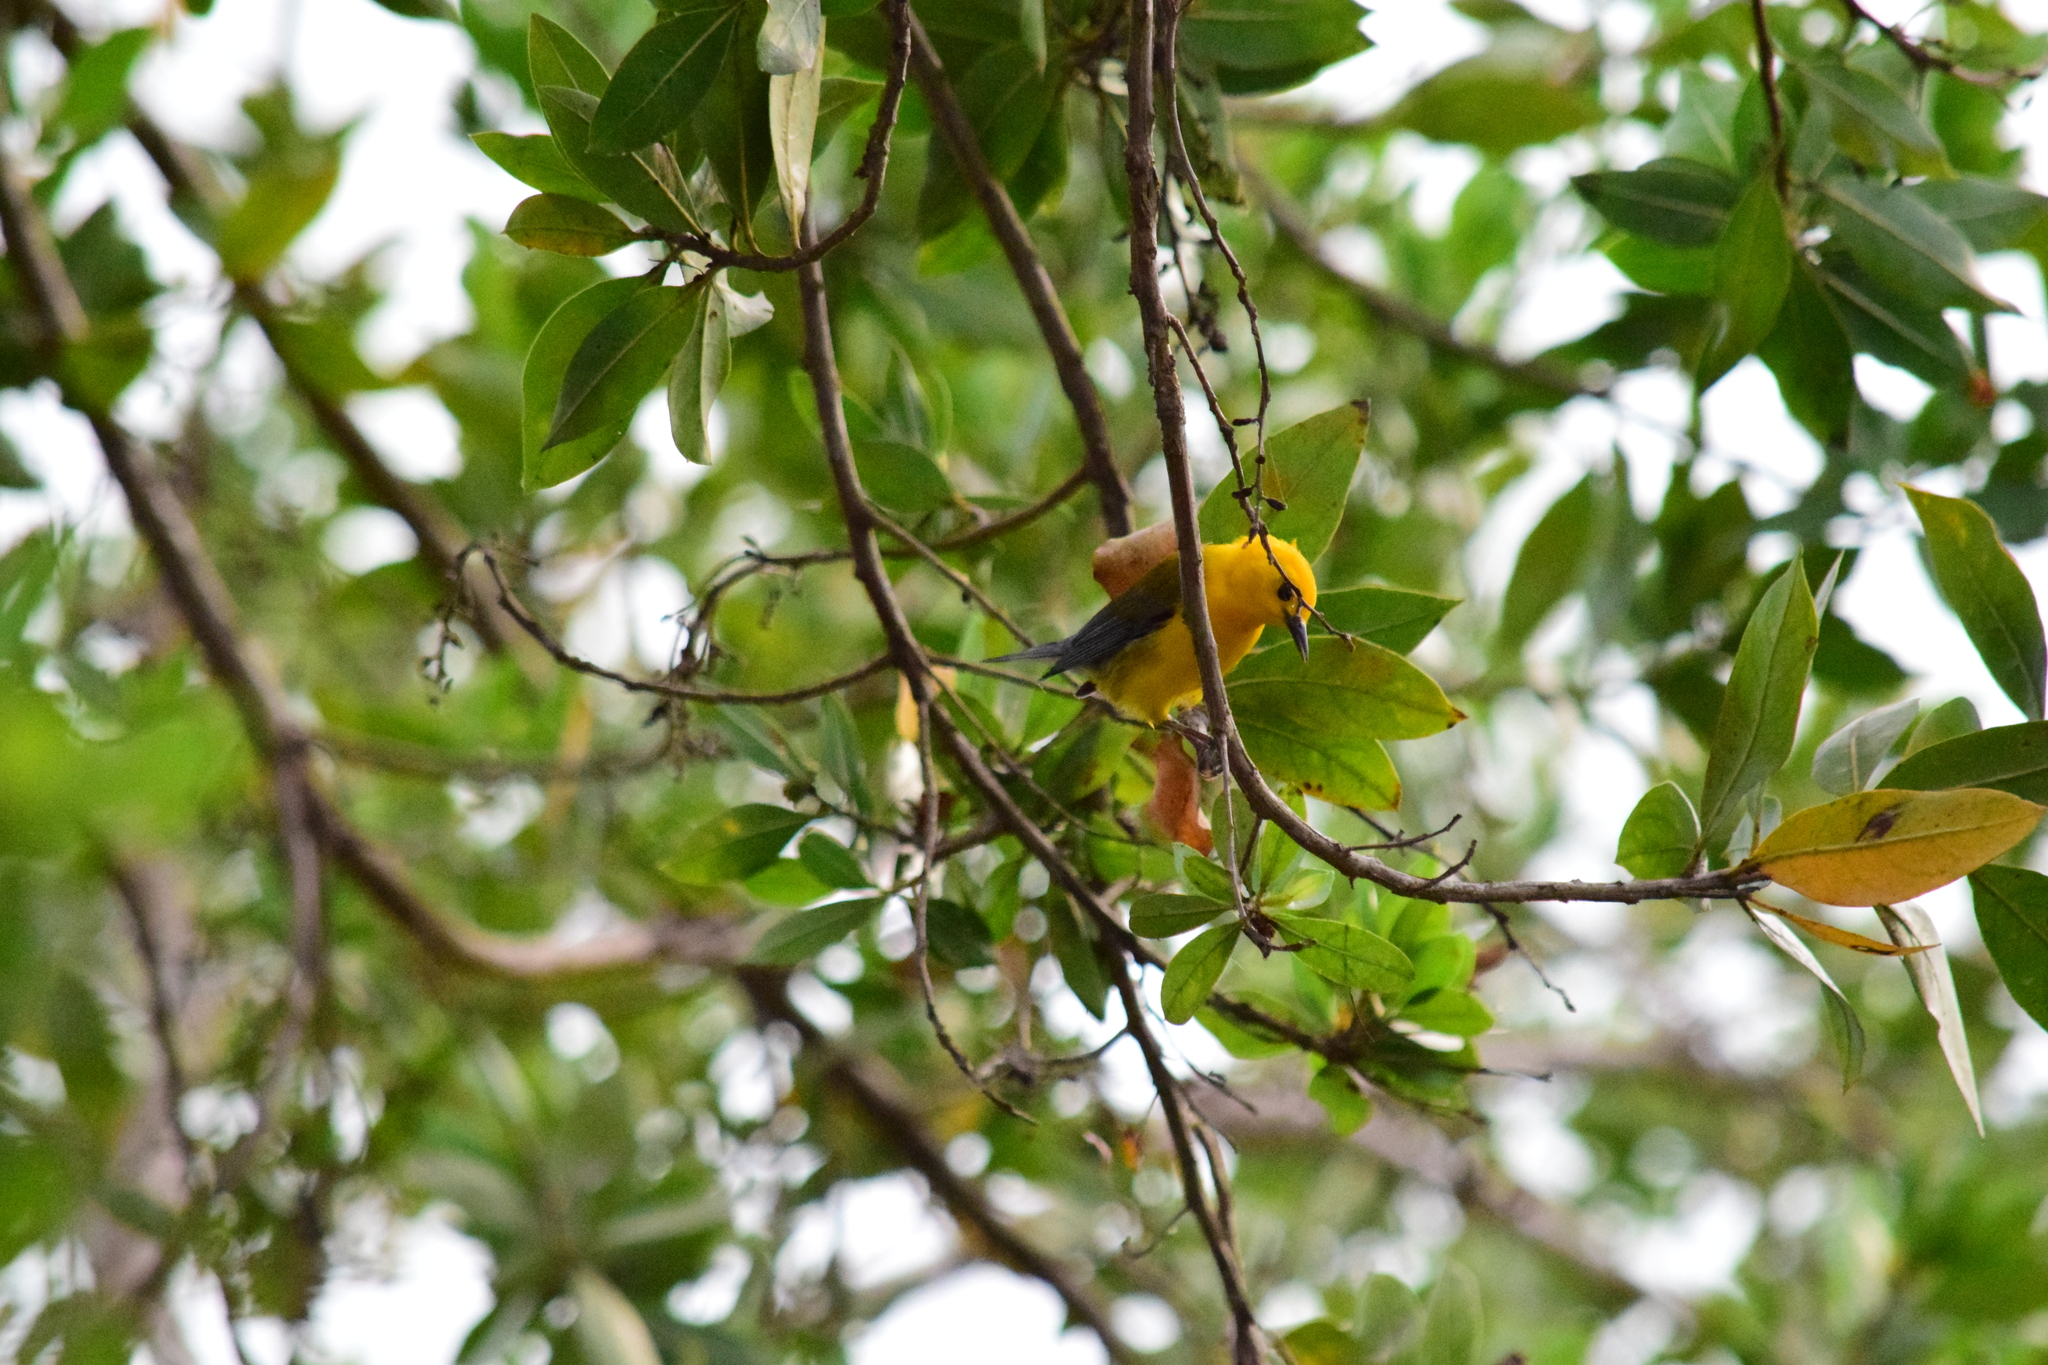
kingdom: Animalia
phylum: Chordata
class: Aves
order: Passeriformes
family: Parulidae
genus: Protonotaria
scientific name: Protonotaria citrea
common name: Prothonotary warbler
